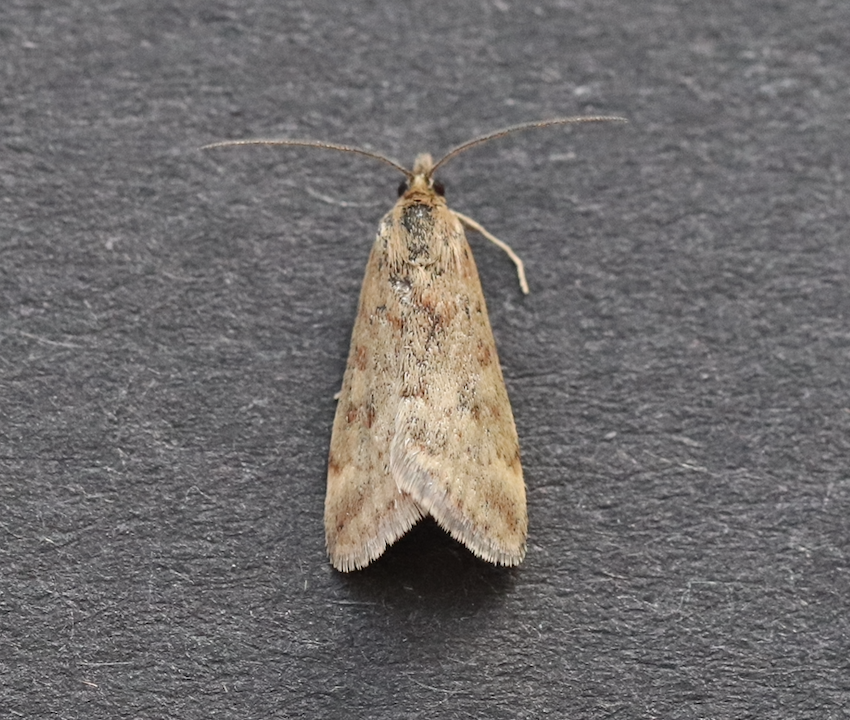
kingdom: Animalia
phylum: Arthropoda
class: Insecta
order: Lepidoptera
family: Crambidae
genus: Pyrausta
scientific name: Pyrausta despicata
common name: Straw-barred pearl
